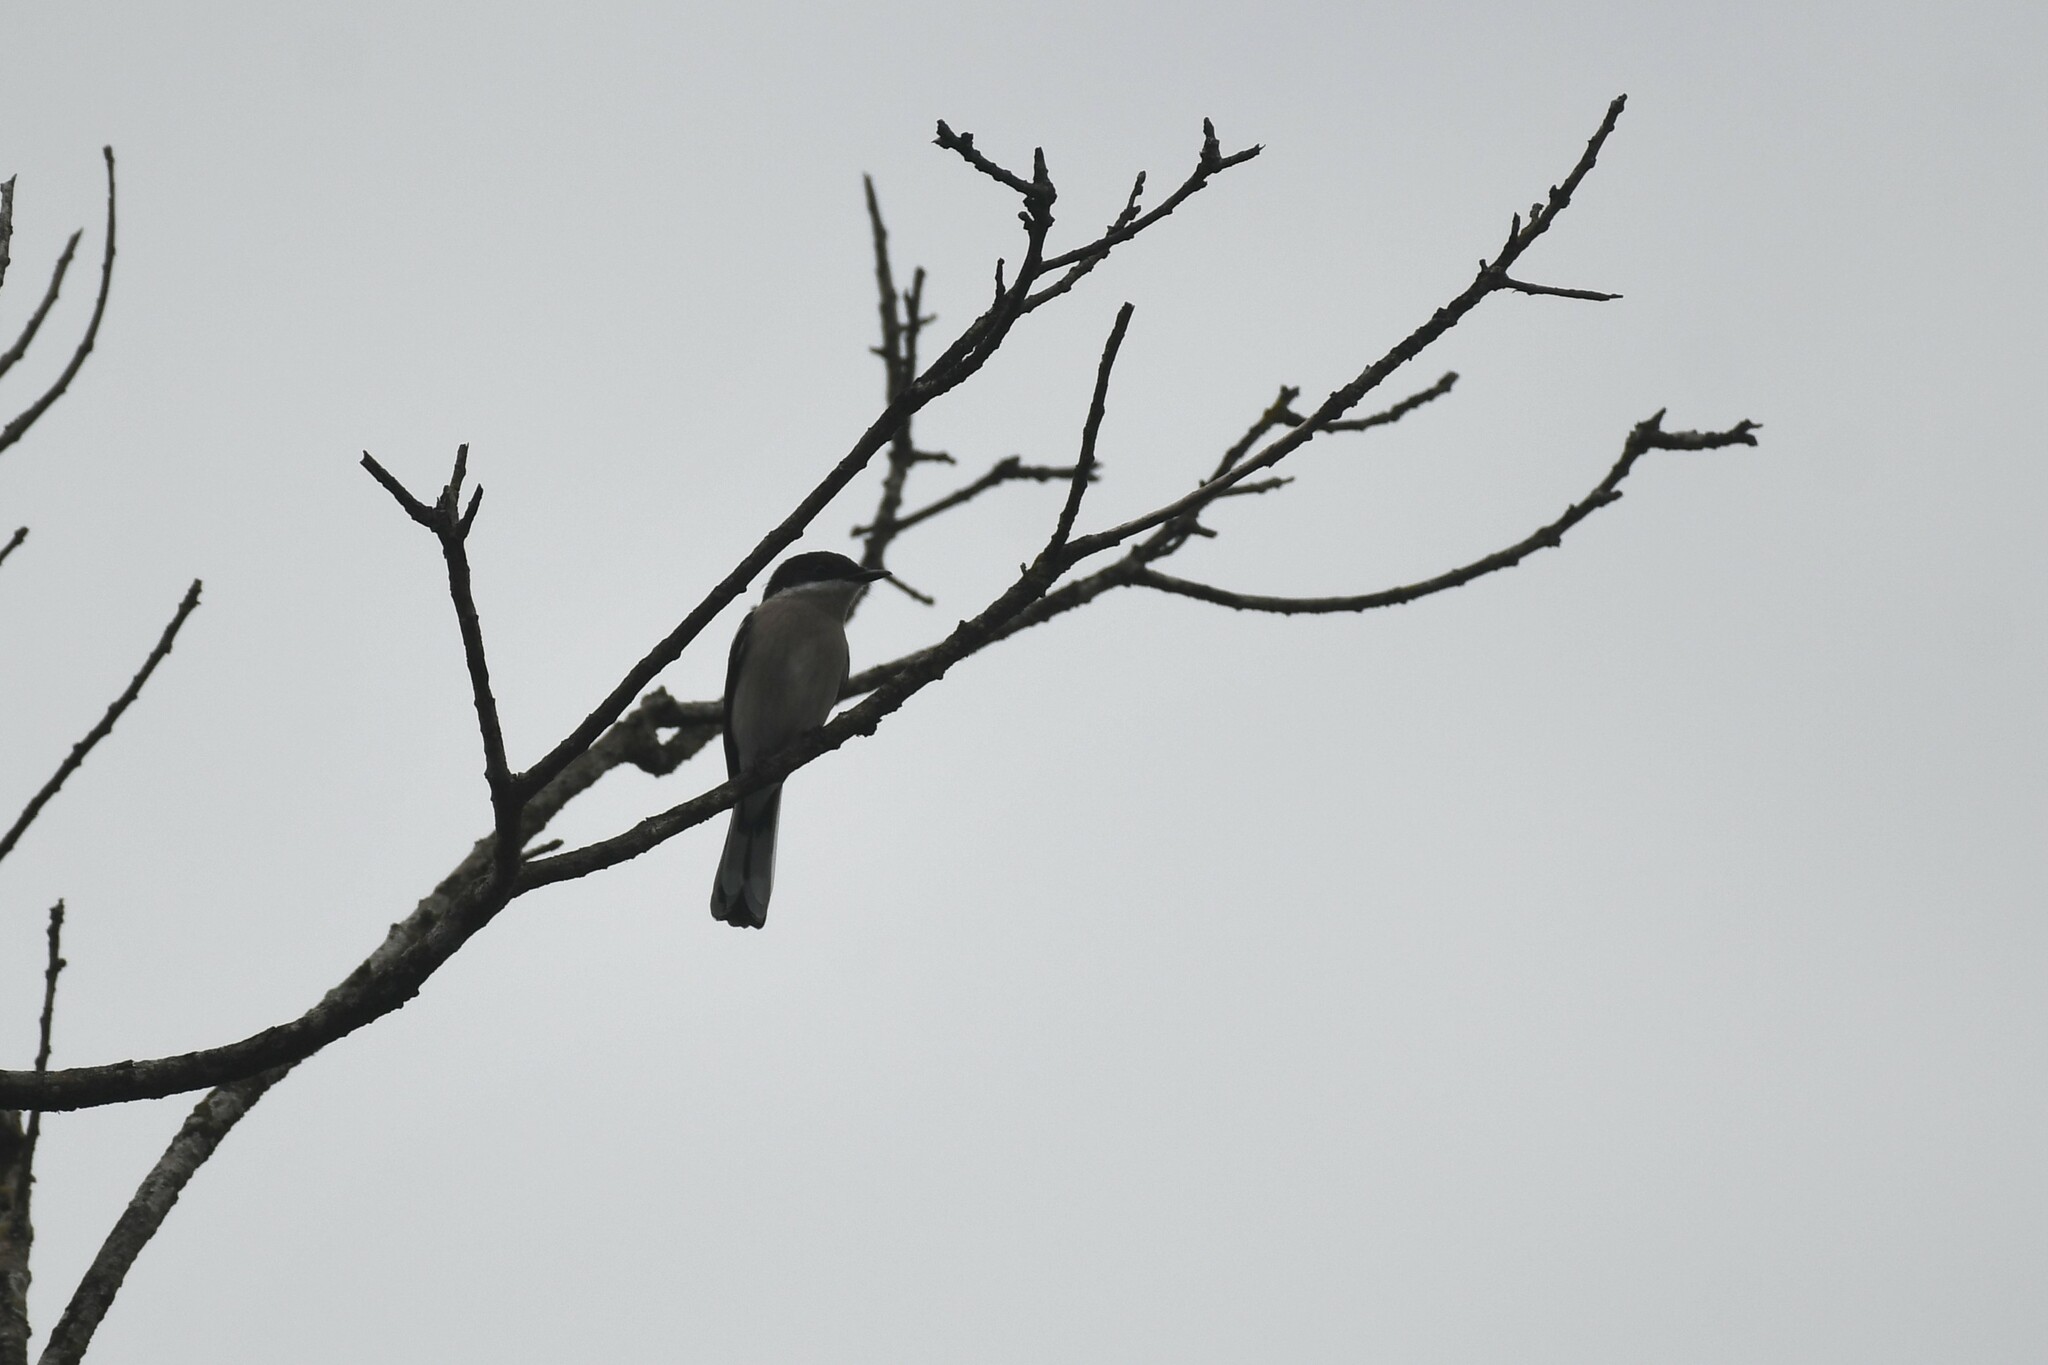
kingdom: Animalia
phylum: Chordata
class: Aves
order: Passeriformes
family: Tephrodornithidae
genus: Hemipus
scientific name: Hemipus picatus
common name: Bar-winged flycatcher-shrike
